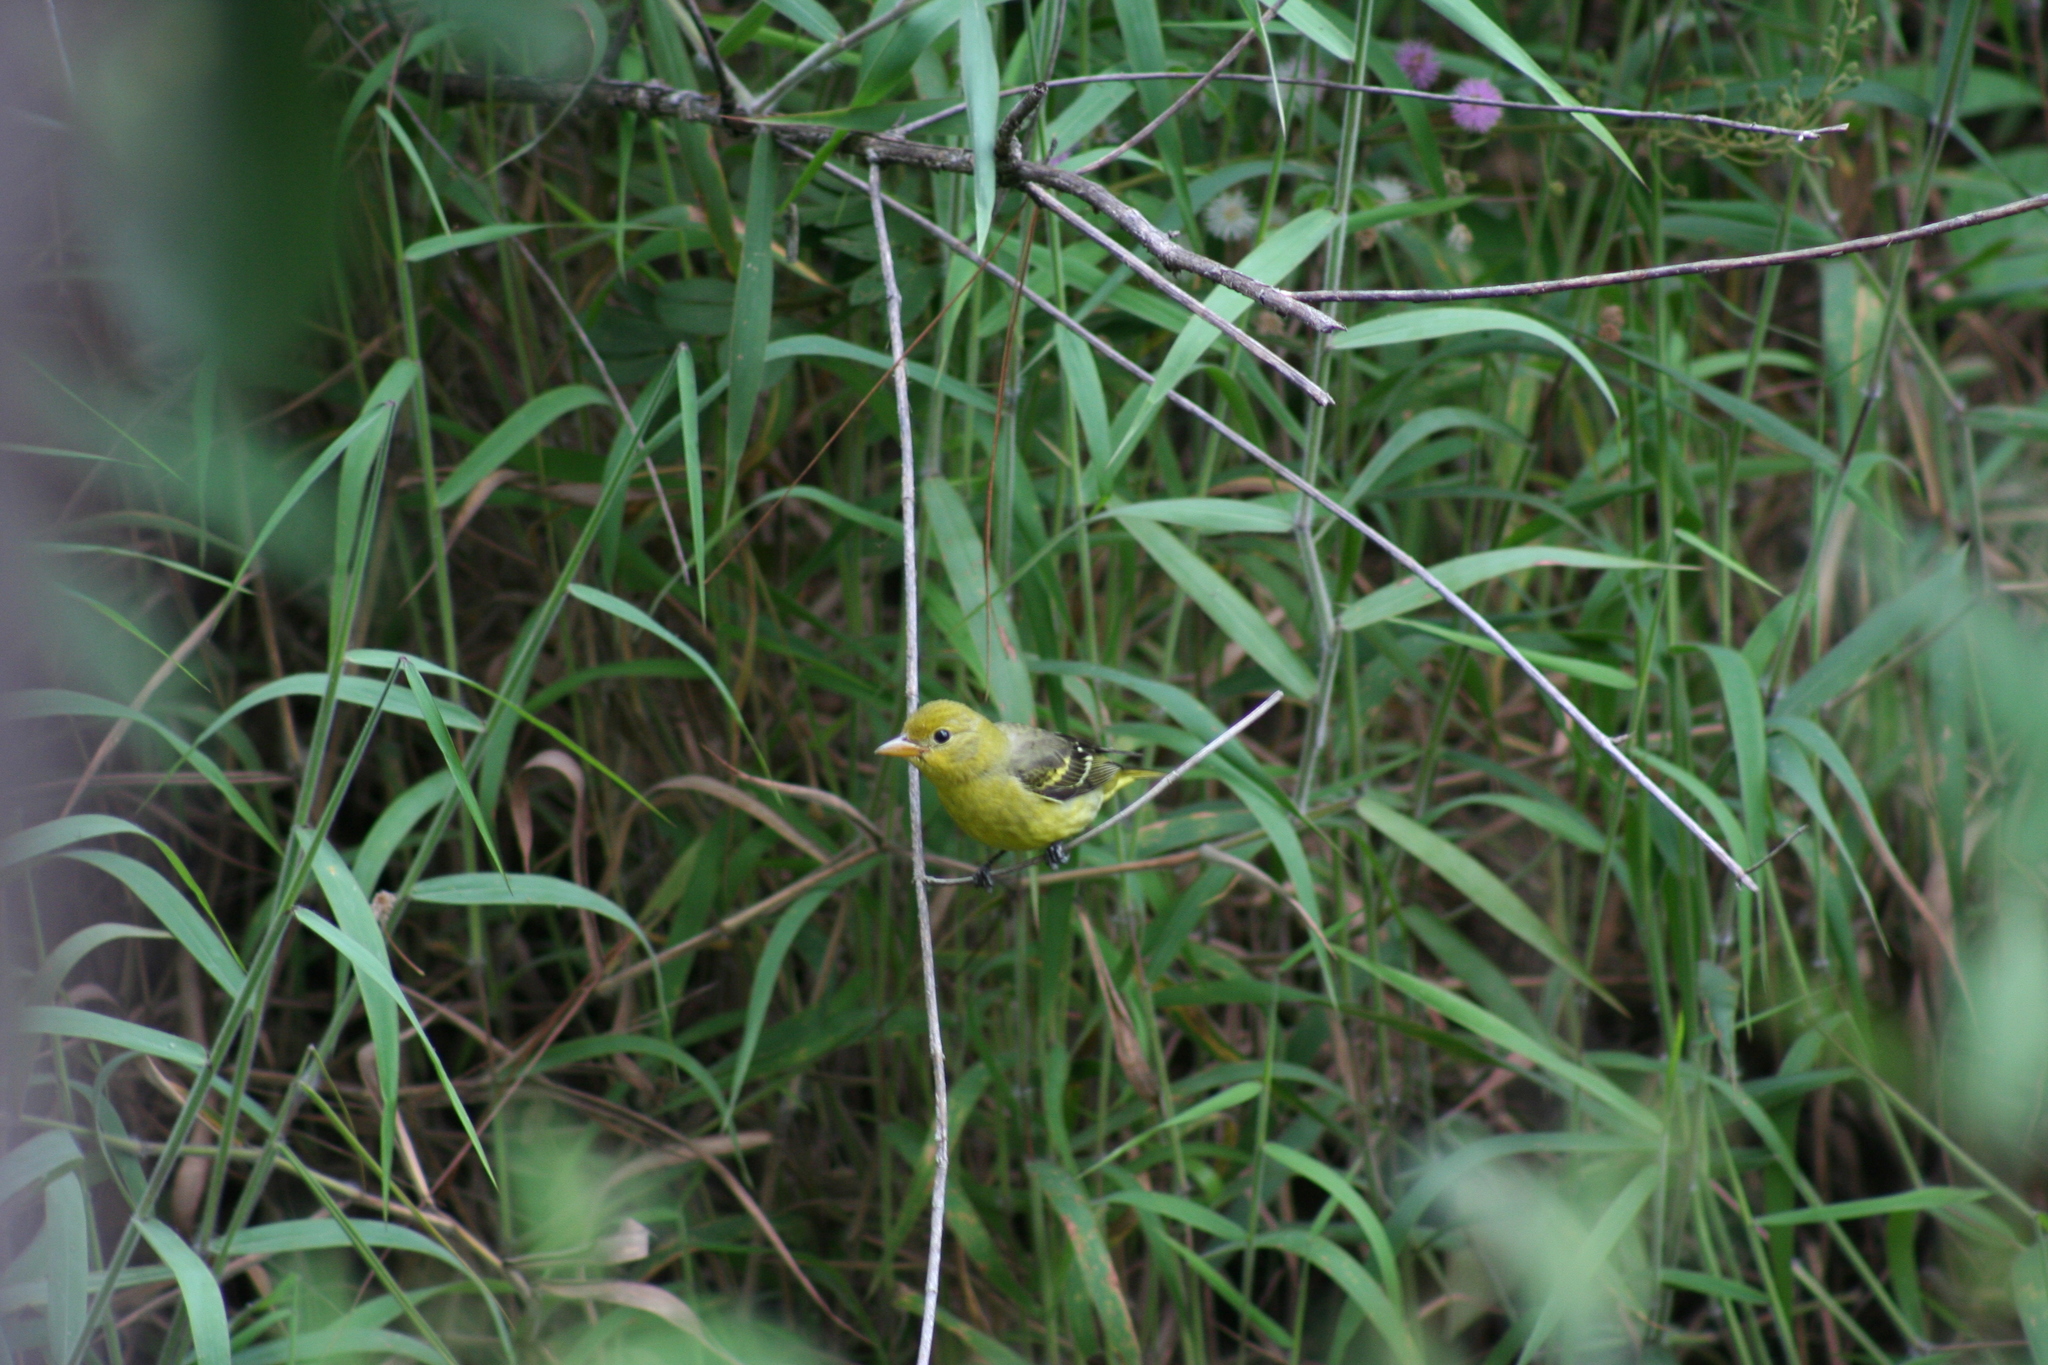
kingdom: Animalia
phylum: Chordata
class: Aves
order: Passeriformes
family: Cardinalidae
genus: Piranga
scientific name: Piranga ludoviciana
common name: Western tanager
